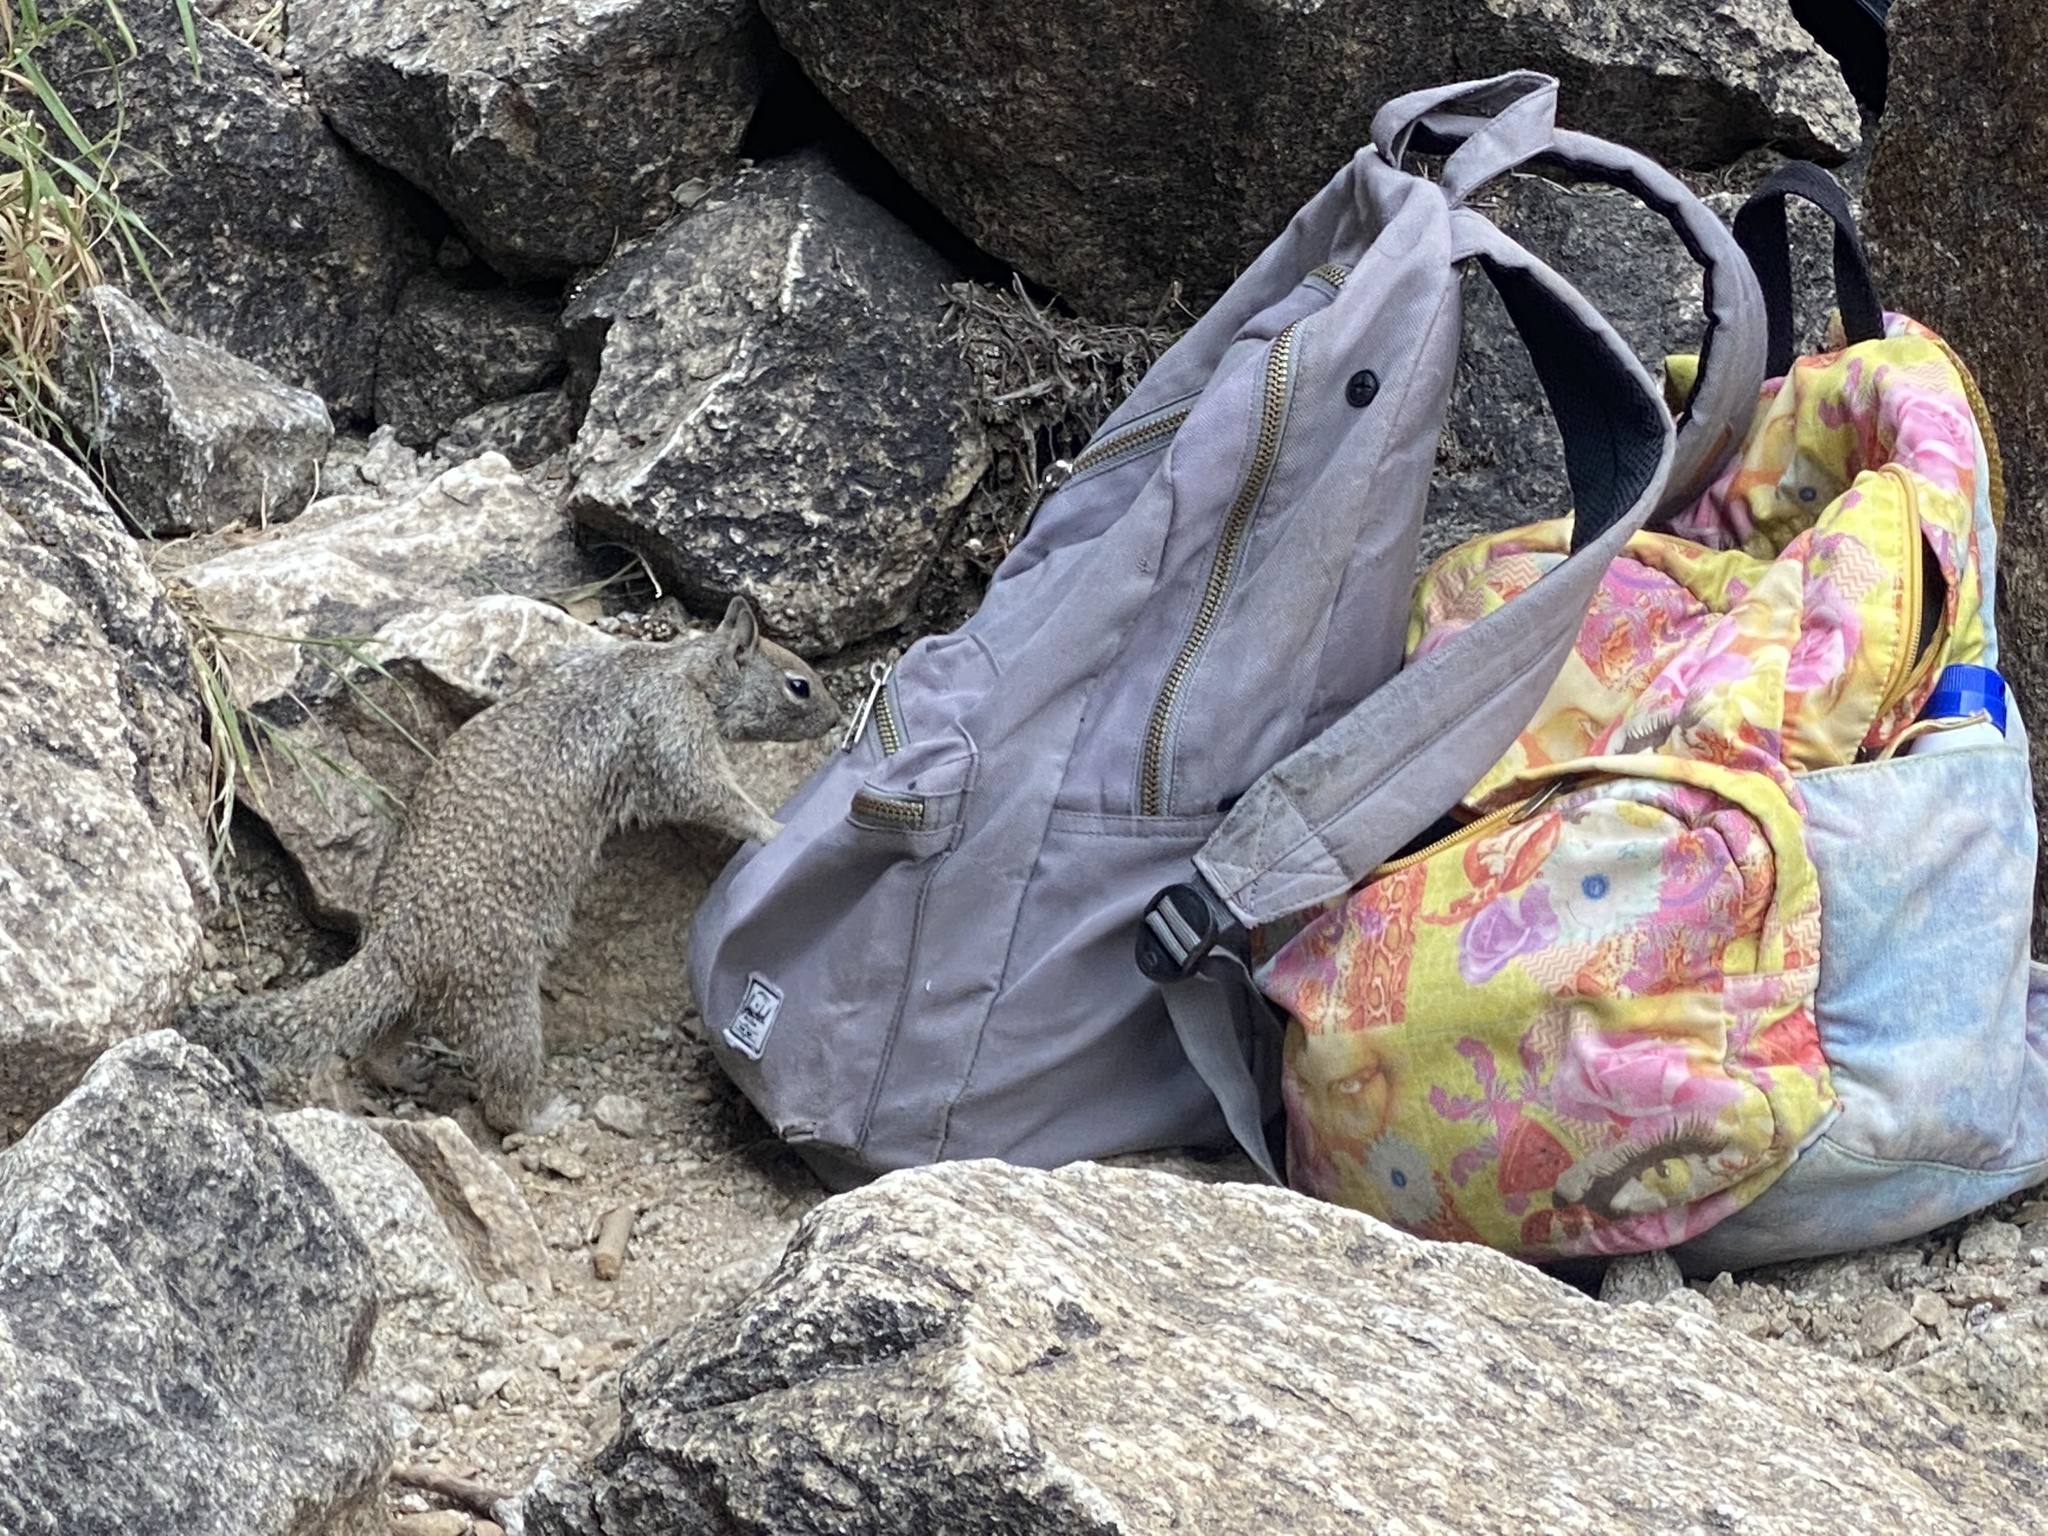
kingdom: Animalia
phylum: Chordata
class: Mammalia
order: Rodentia
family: Sciuridae
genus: Otospermophilus
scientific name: Otospermophilus beecheyi
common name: California ground squirrel
